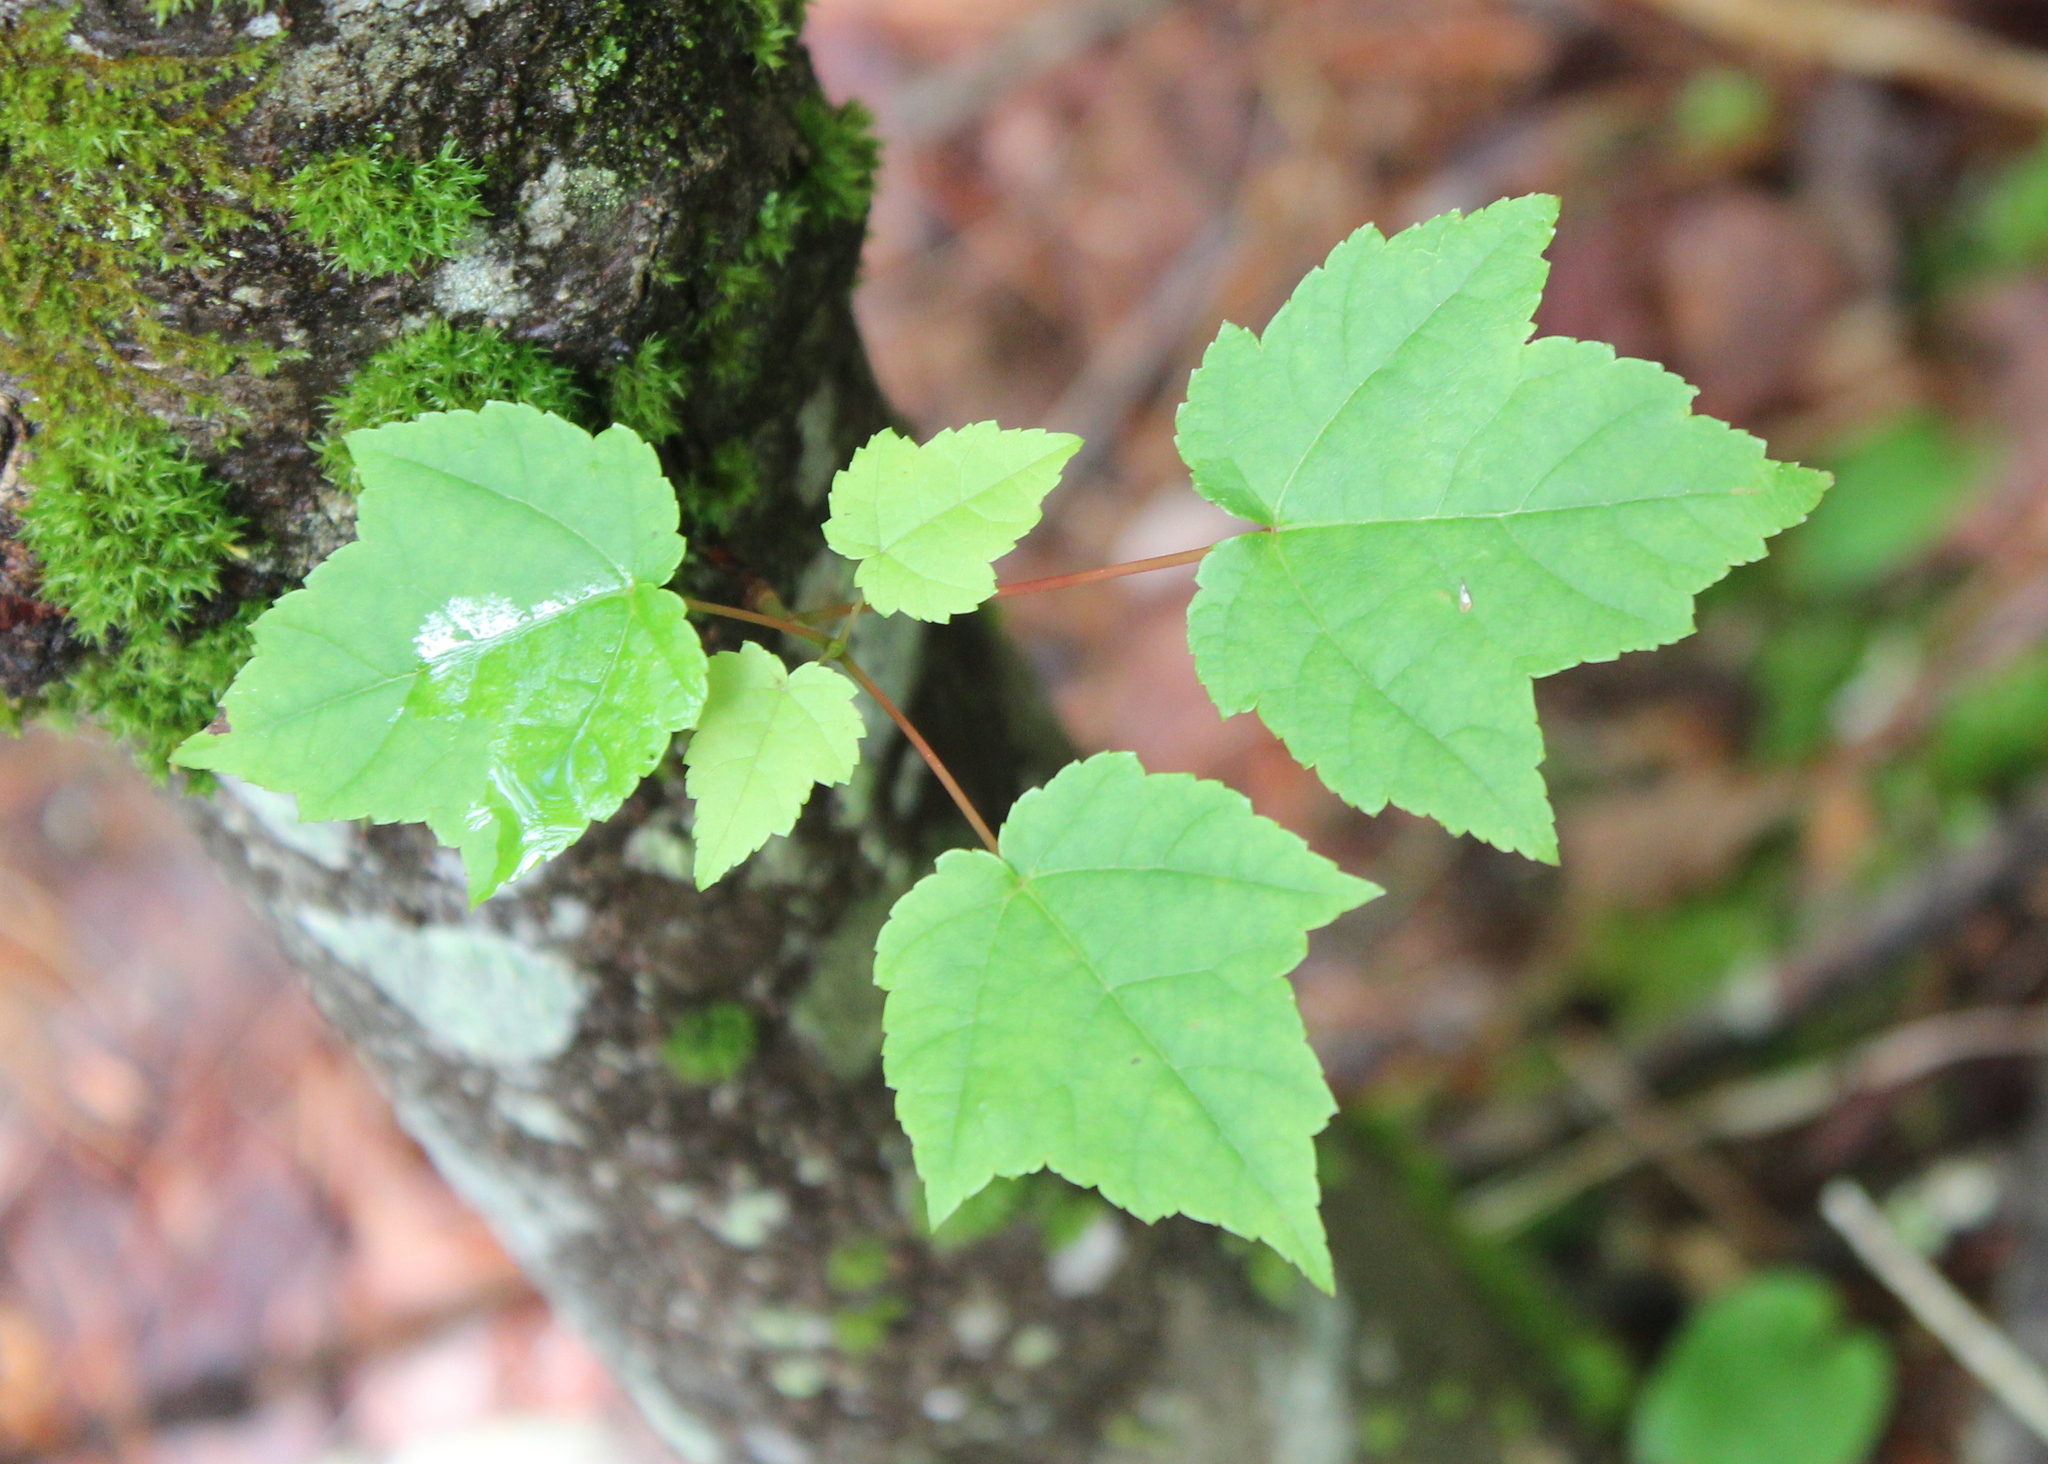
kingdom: Plantae
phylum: Tracheophyta
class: Magnoliopsida
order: Sapindales
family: Sapindaceae
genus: Acer
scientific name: Acer rubrum
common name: Red maple
